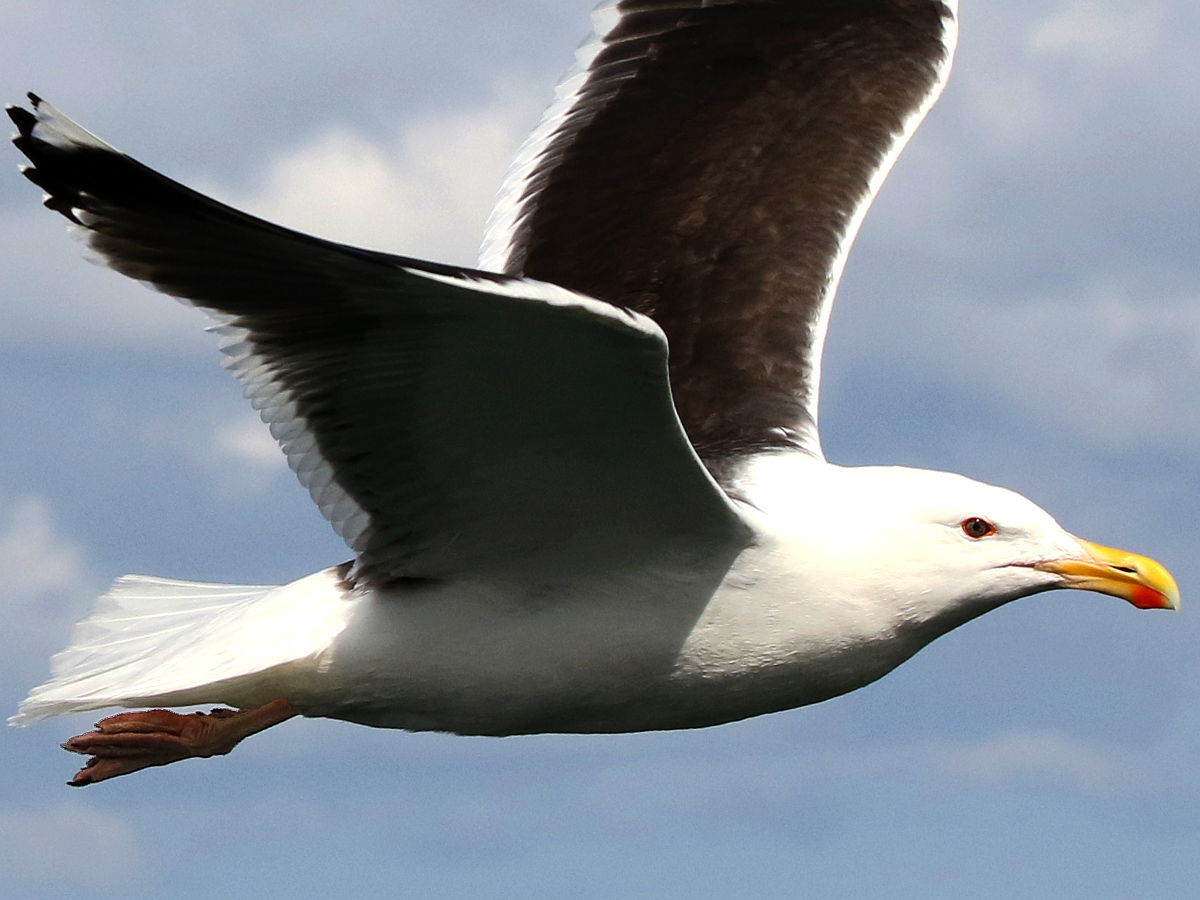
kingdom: Animalia
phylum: Chordata
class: Aves
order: Charadriiformes
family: Laridae
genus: Larus
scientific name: Larus marinus
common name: Great black-backed gull
